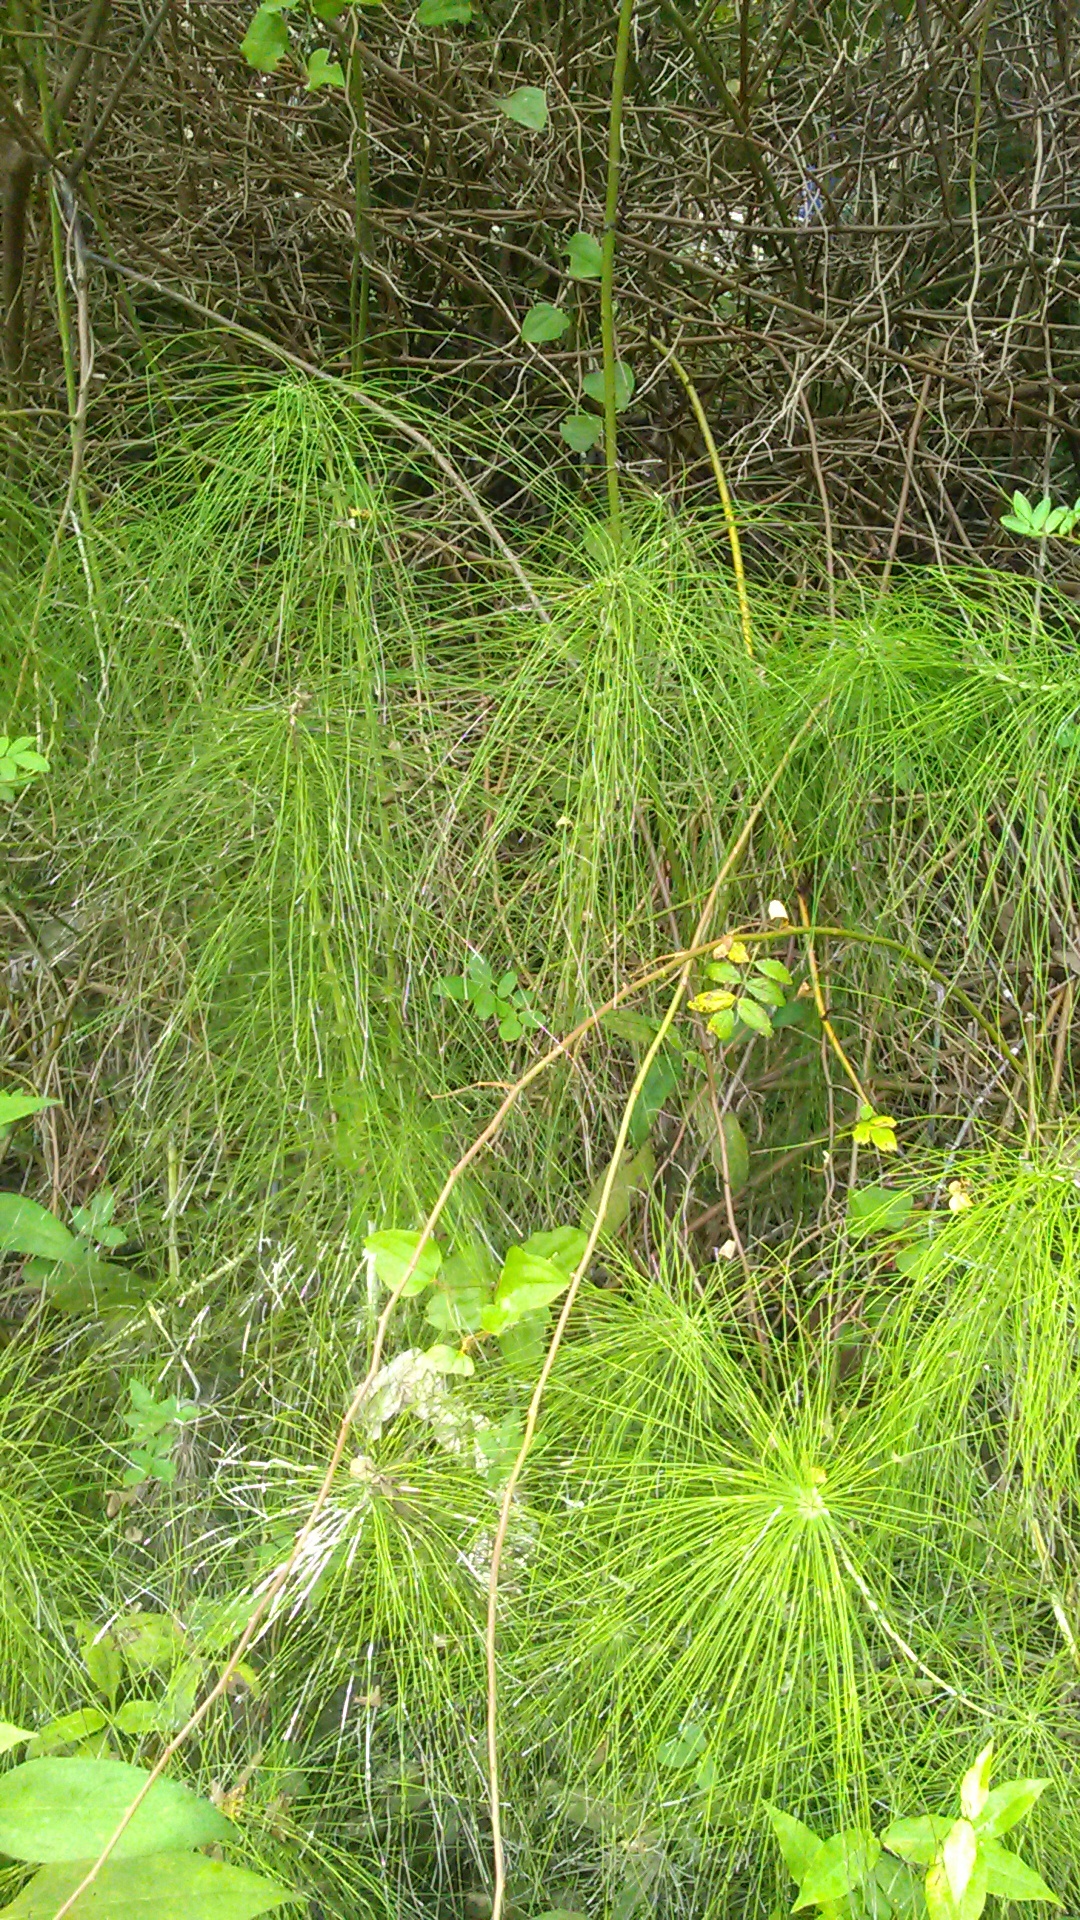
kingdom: Plantae
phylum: Tracheophyta
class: Polypodiopsida
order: Equisetales
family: Equisetaceae
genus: Equisetum
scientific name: Equisetum telmateia
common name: Great horsetail
